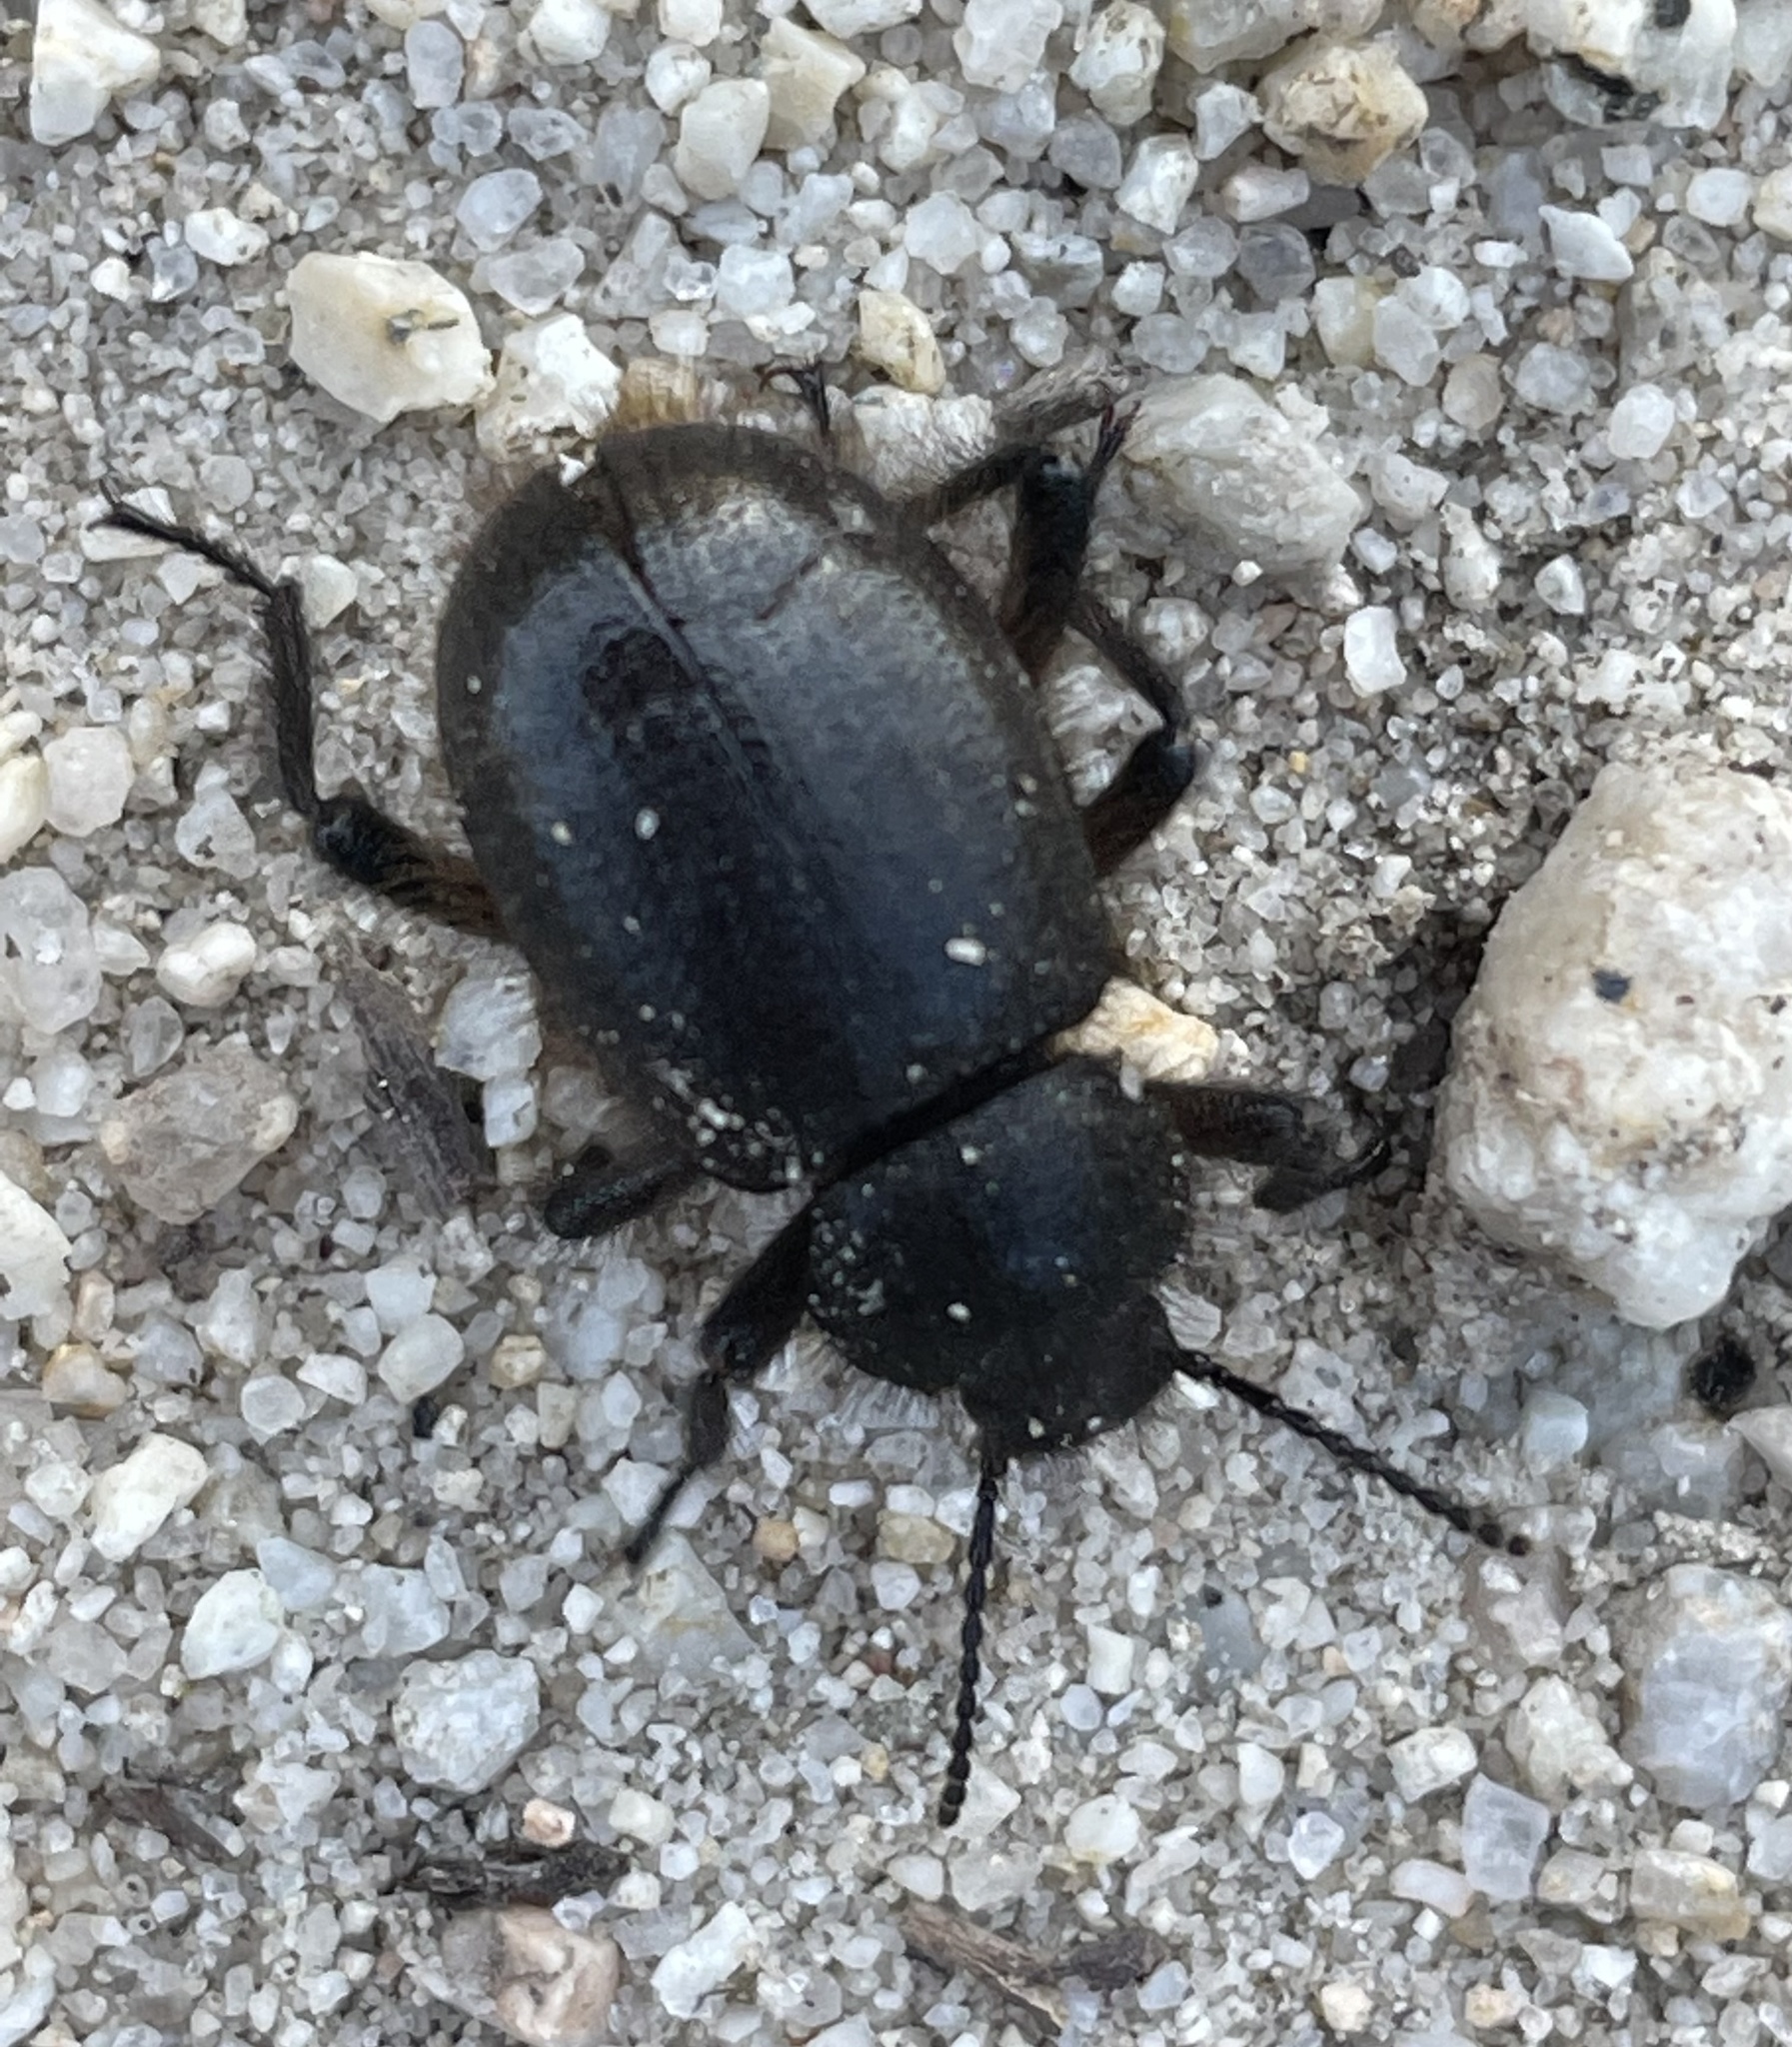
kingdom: Animalia
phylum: Arthropoda
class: Insecta
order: Coleoptera
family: Tenebrionidae
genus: Eleodes
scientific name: Eleodes osculans
